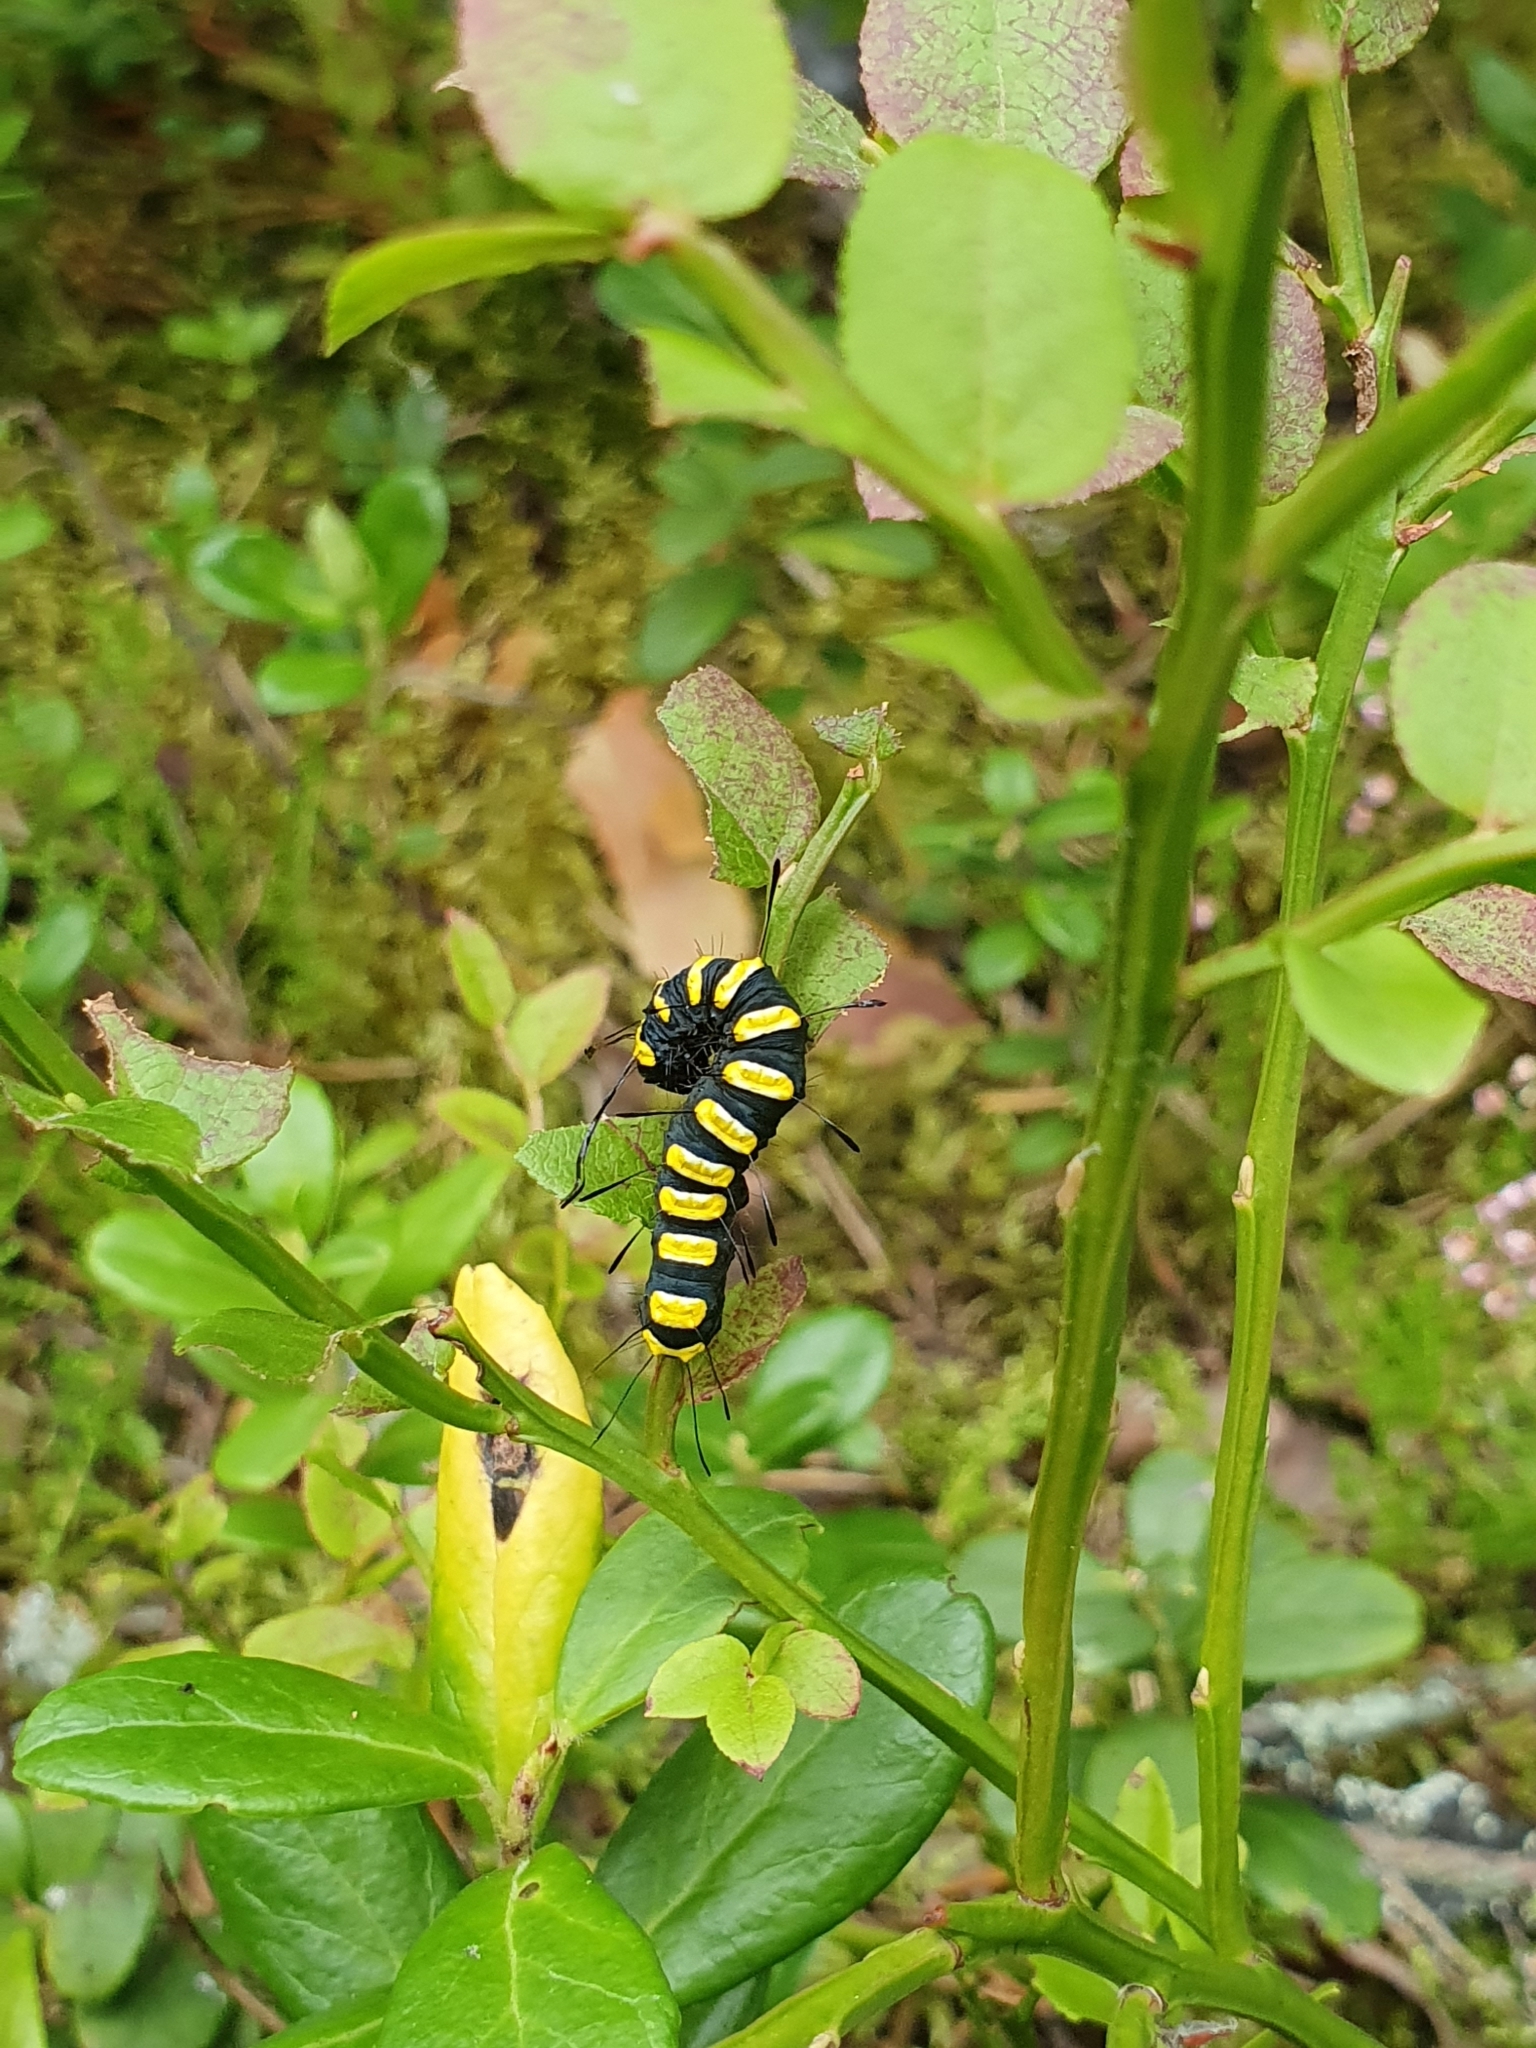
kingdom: Animalia
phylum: Arthropoda
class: Insecta
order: Lepidoptera
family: Noctuidae
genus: Acronicta
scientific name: Acronicta alni
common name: Alder moth
